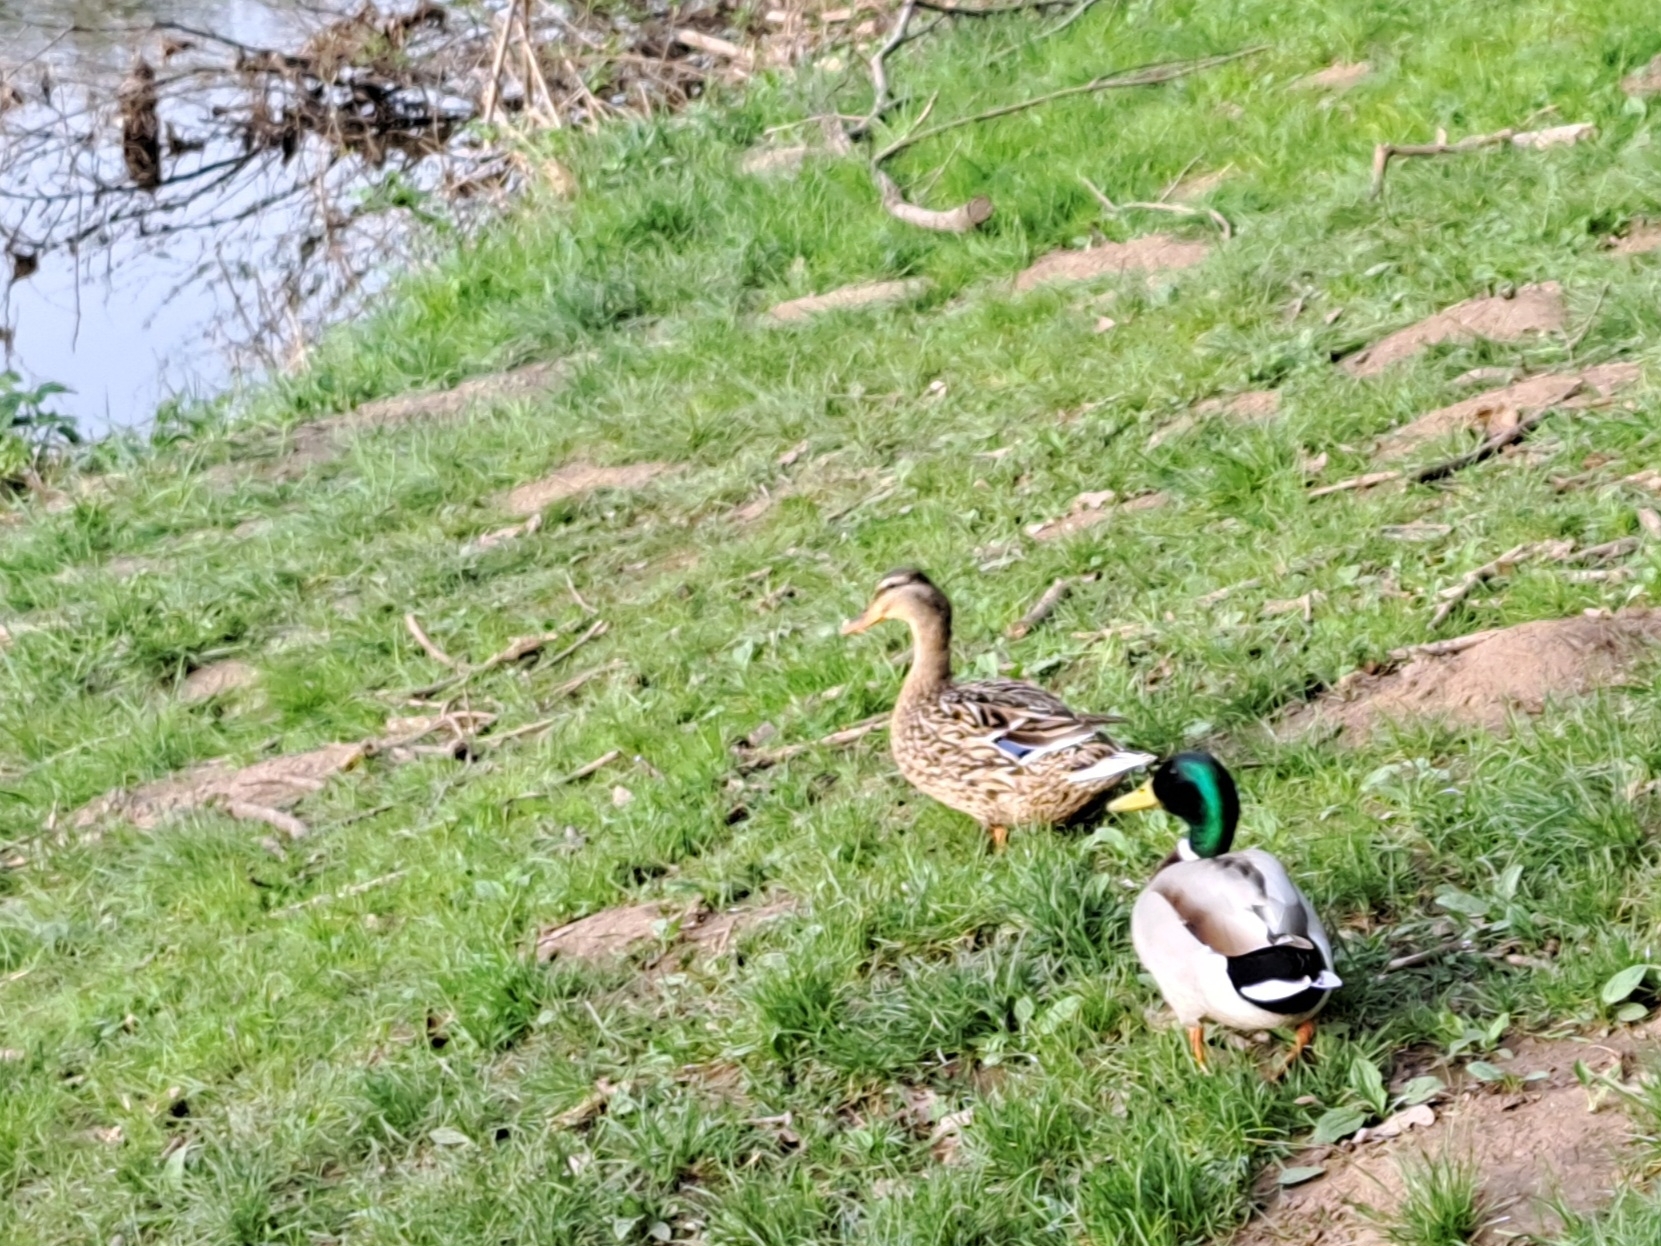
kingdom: Animalia
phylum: Chordata
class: Aves
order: Anseriformes
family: Anatidae
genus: Anas
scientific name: Anas platyrhynchos
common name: Mallard
